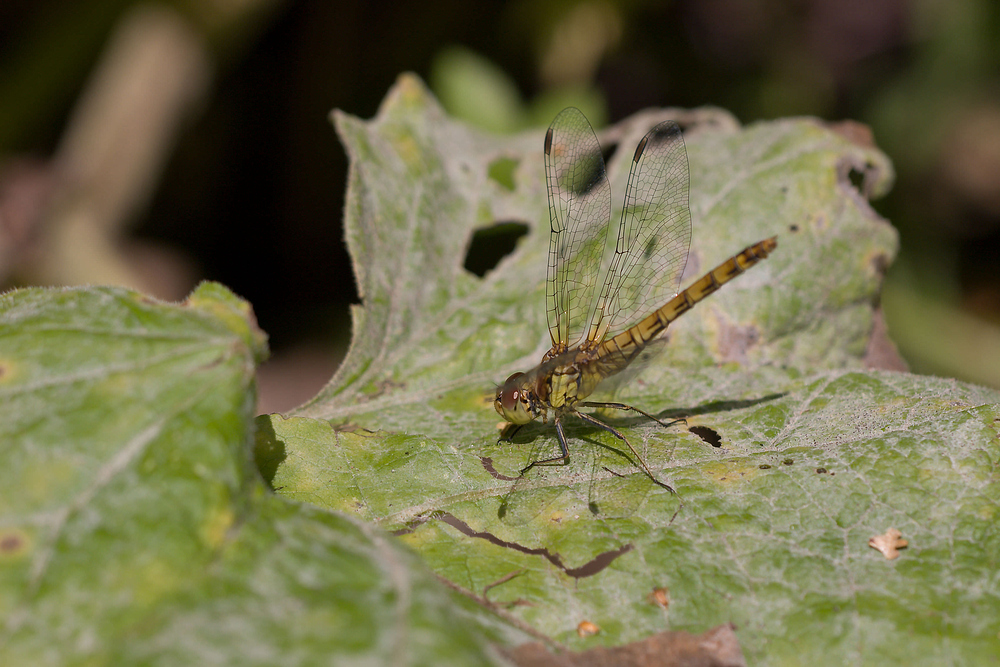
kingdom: Animalia
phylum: Arthropoda
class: Insecta
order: Odonata
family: Libellulidae
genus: Sympetrum
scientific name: Sympetrum striolatum
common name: Common darter
